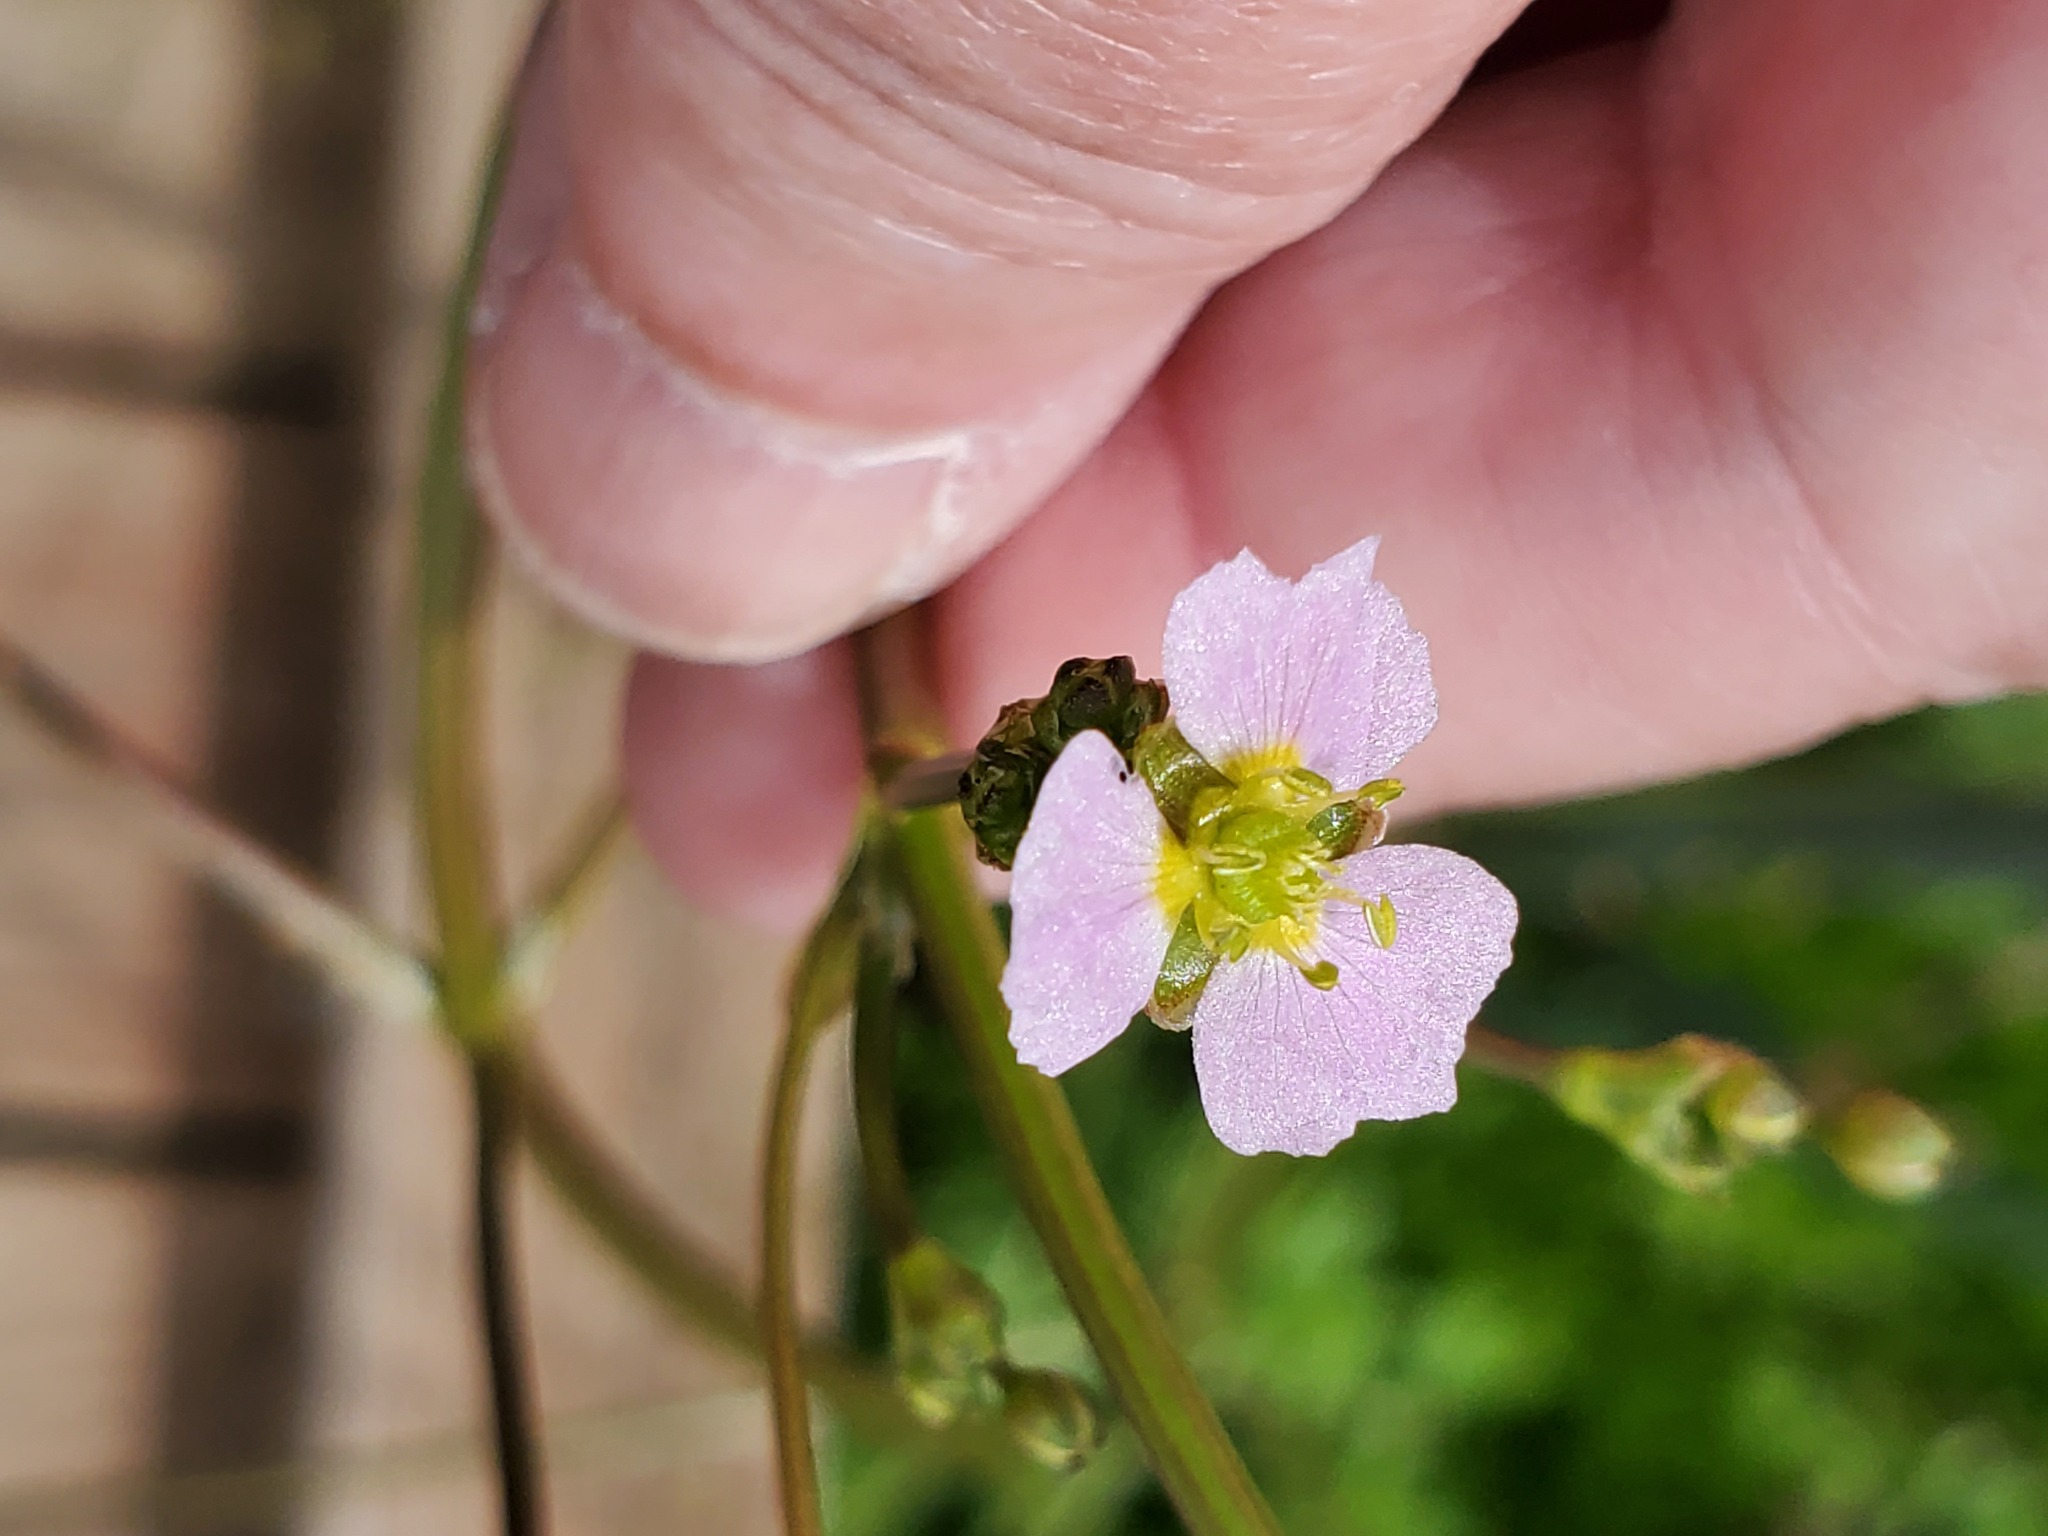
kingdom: Plantae
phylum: Tracheophyta
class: Liliopsida
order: Alismatales
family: Alismataceae
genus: Alisma
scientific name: Alisma lanceolatum
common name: Narrow-leaved water-plantain
